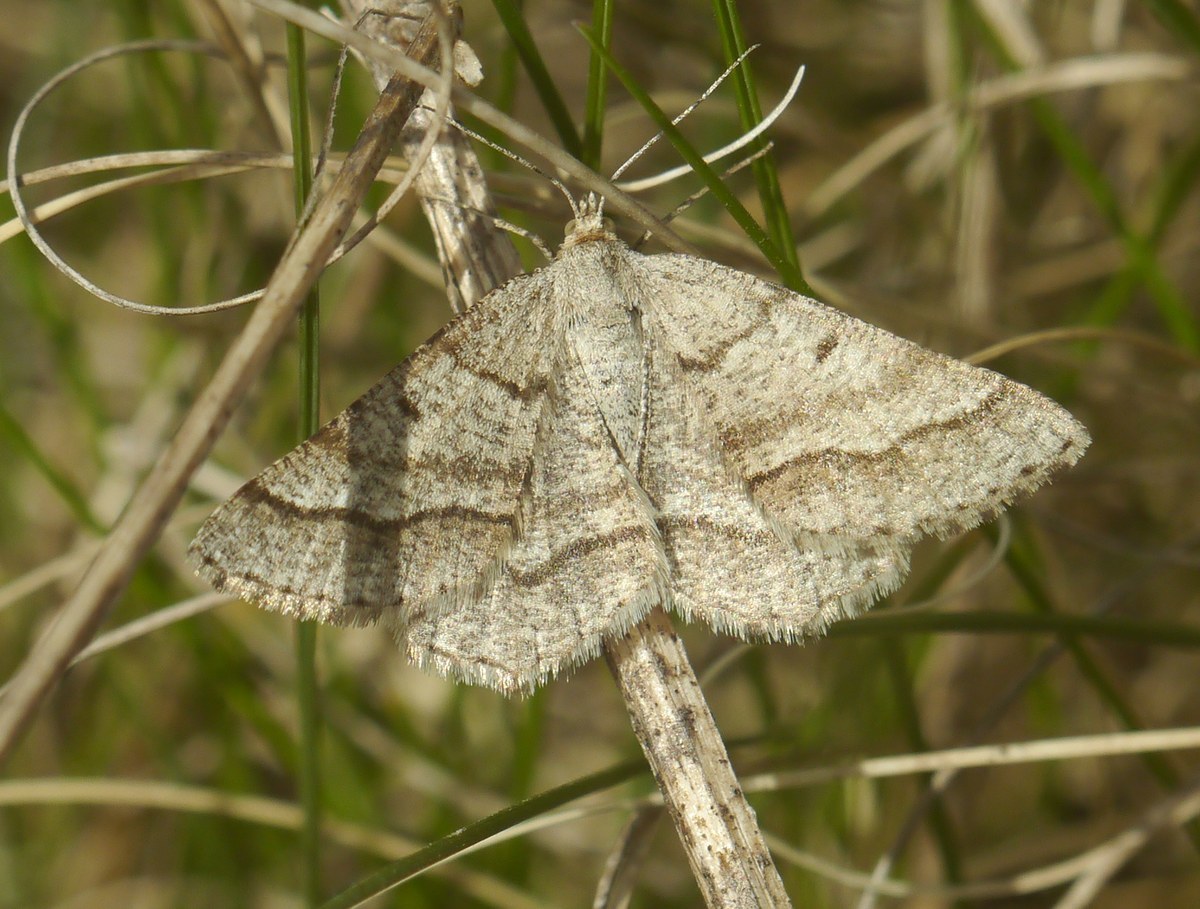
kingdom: Animalia
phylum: Arthropoda
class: Insecta
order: Lepidoptera
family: Geometridae
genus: Tephrina
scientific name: Tephrina murinaria
